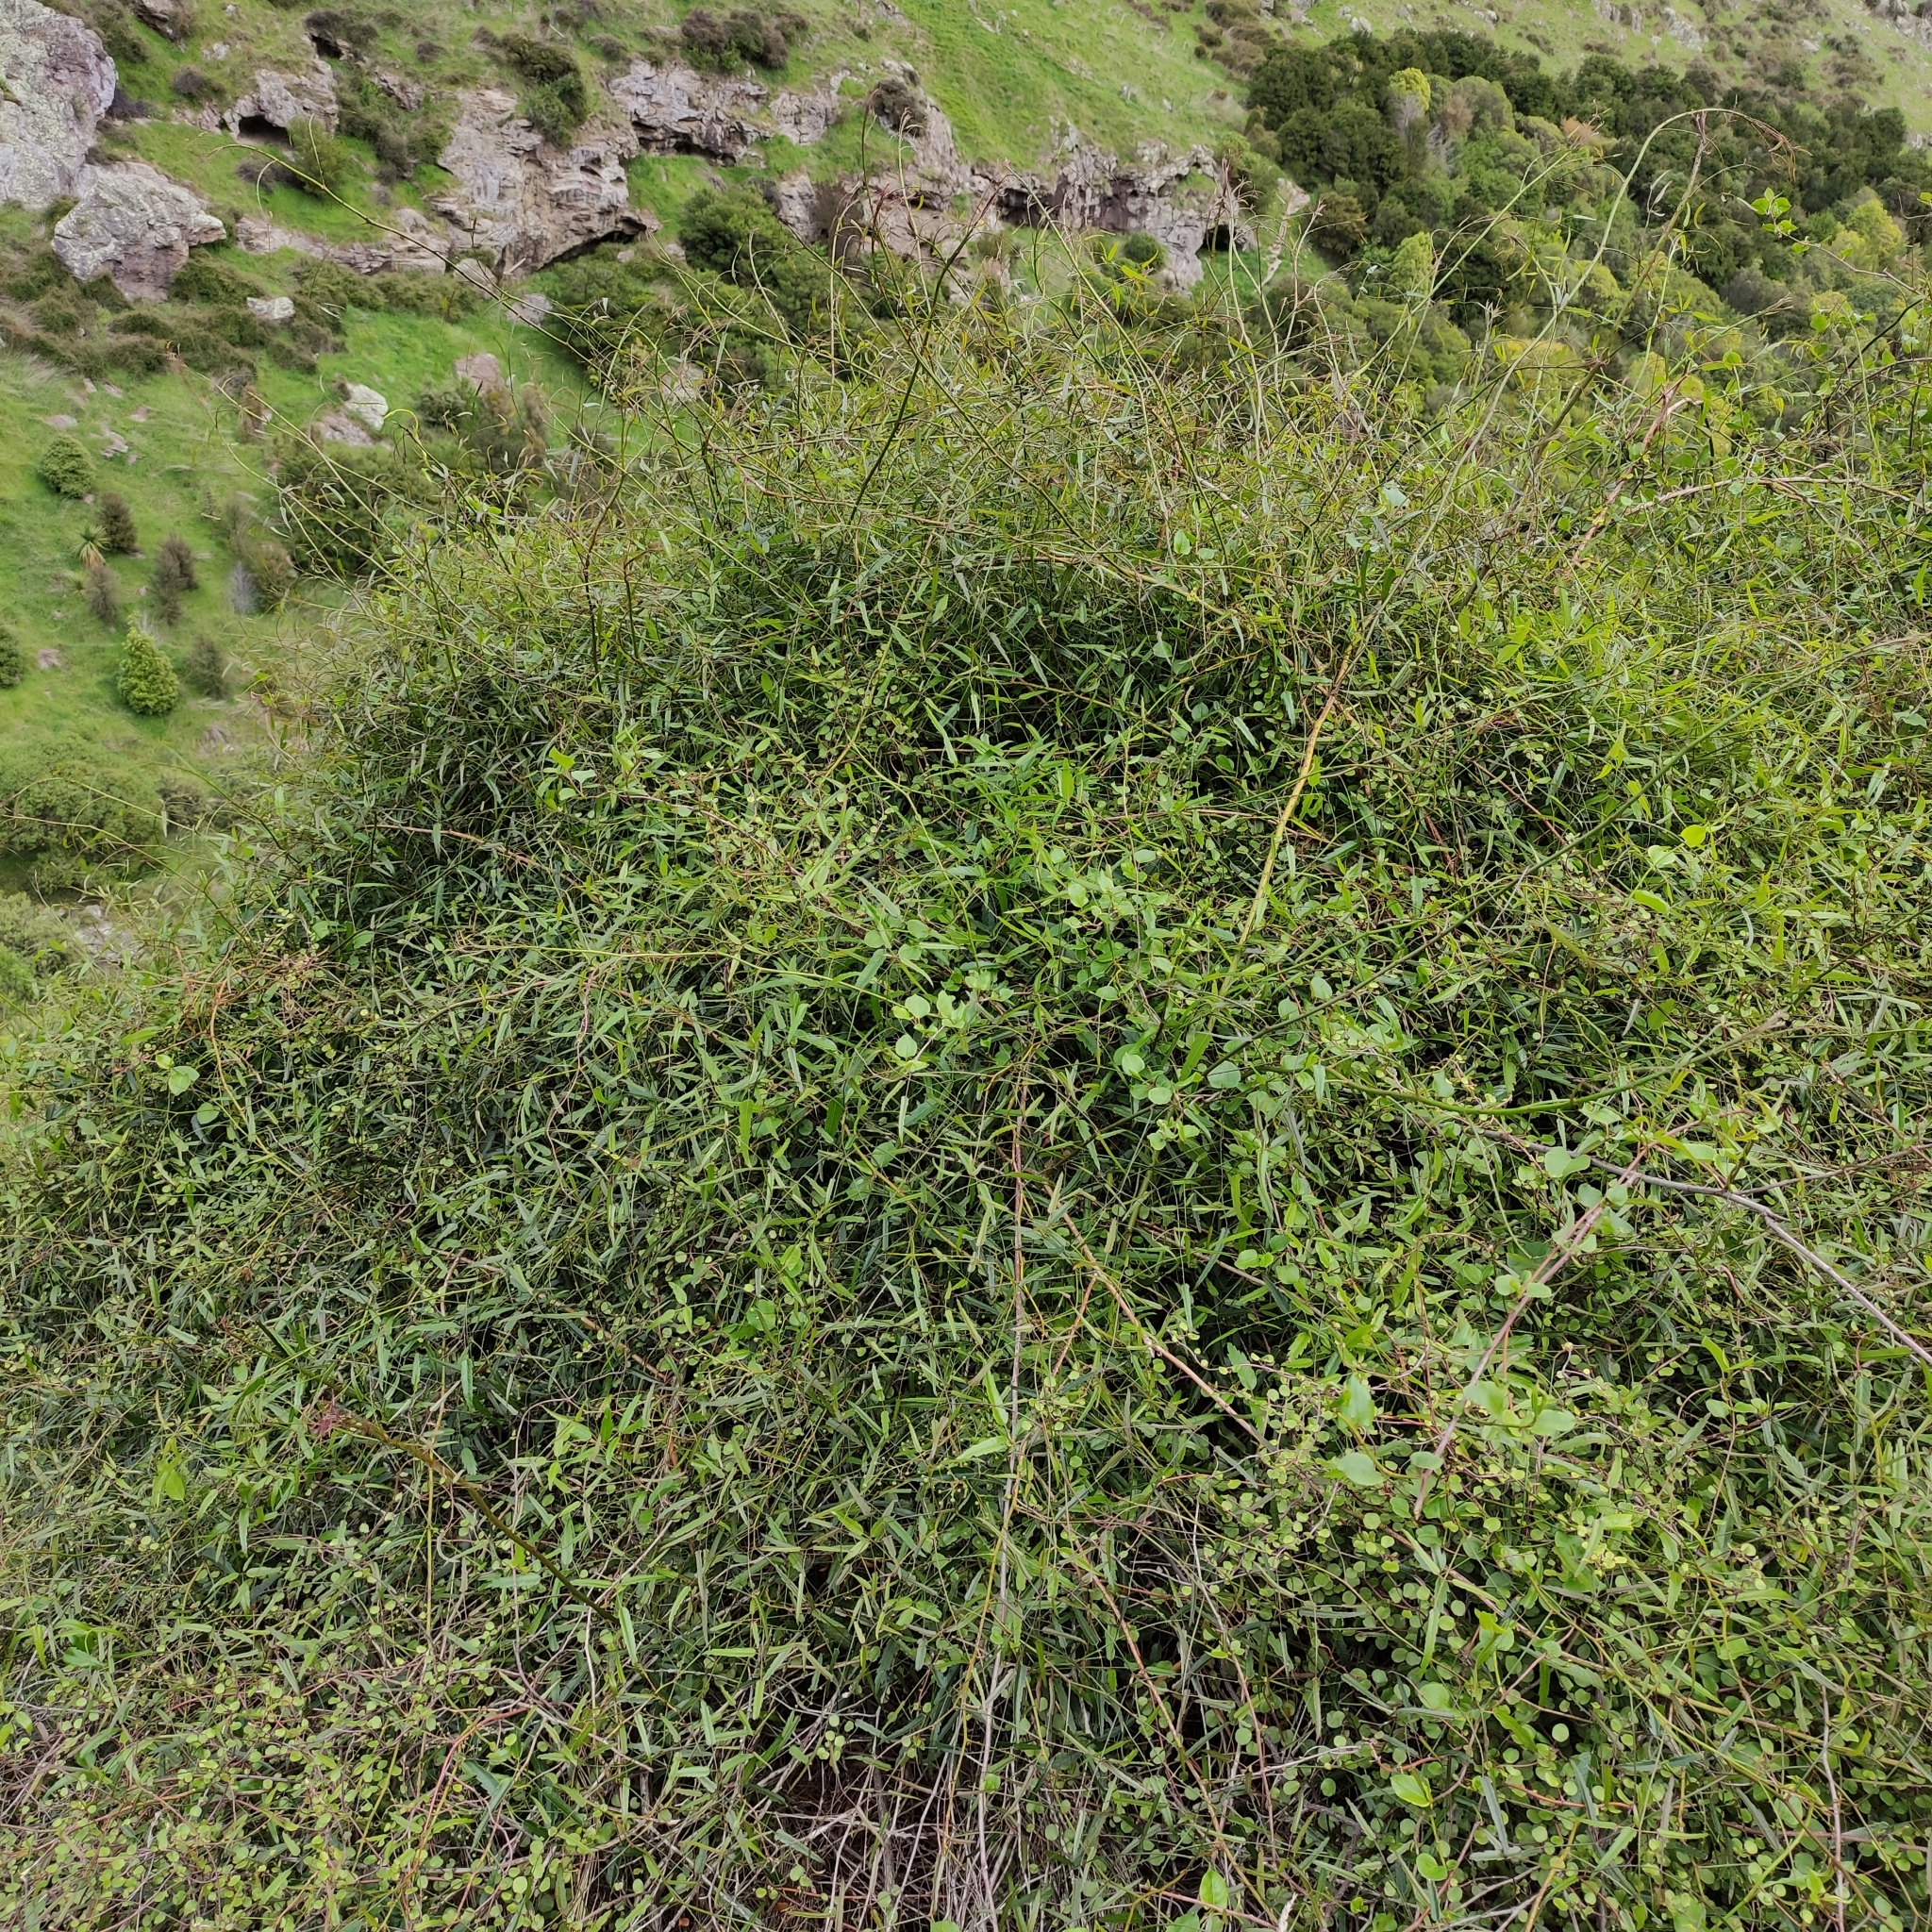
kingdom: Plantae
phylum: Tracheophyta
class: Magnoliopsida
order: Rosales
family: Rosaceae
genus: Rubus
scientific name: Rubus schmidelioides
